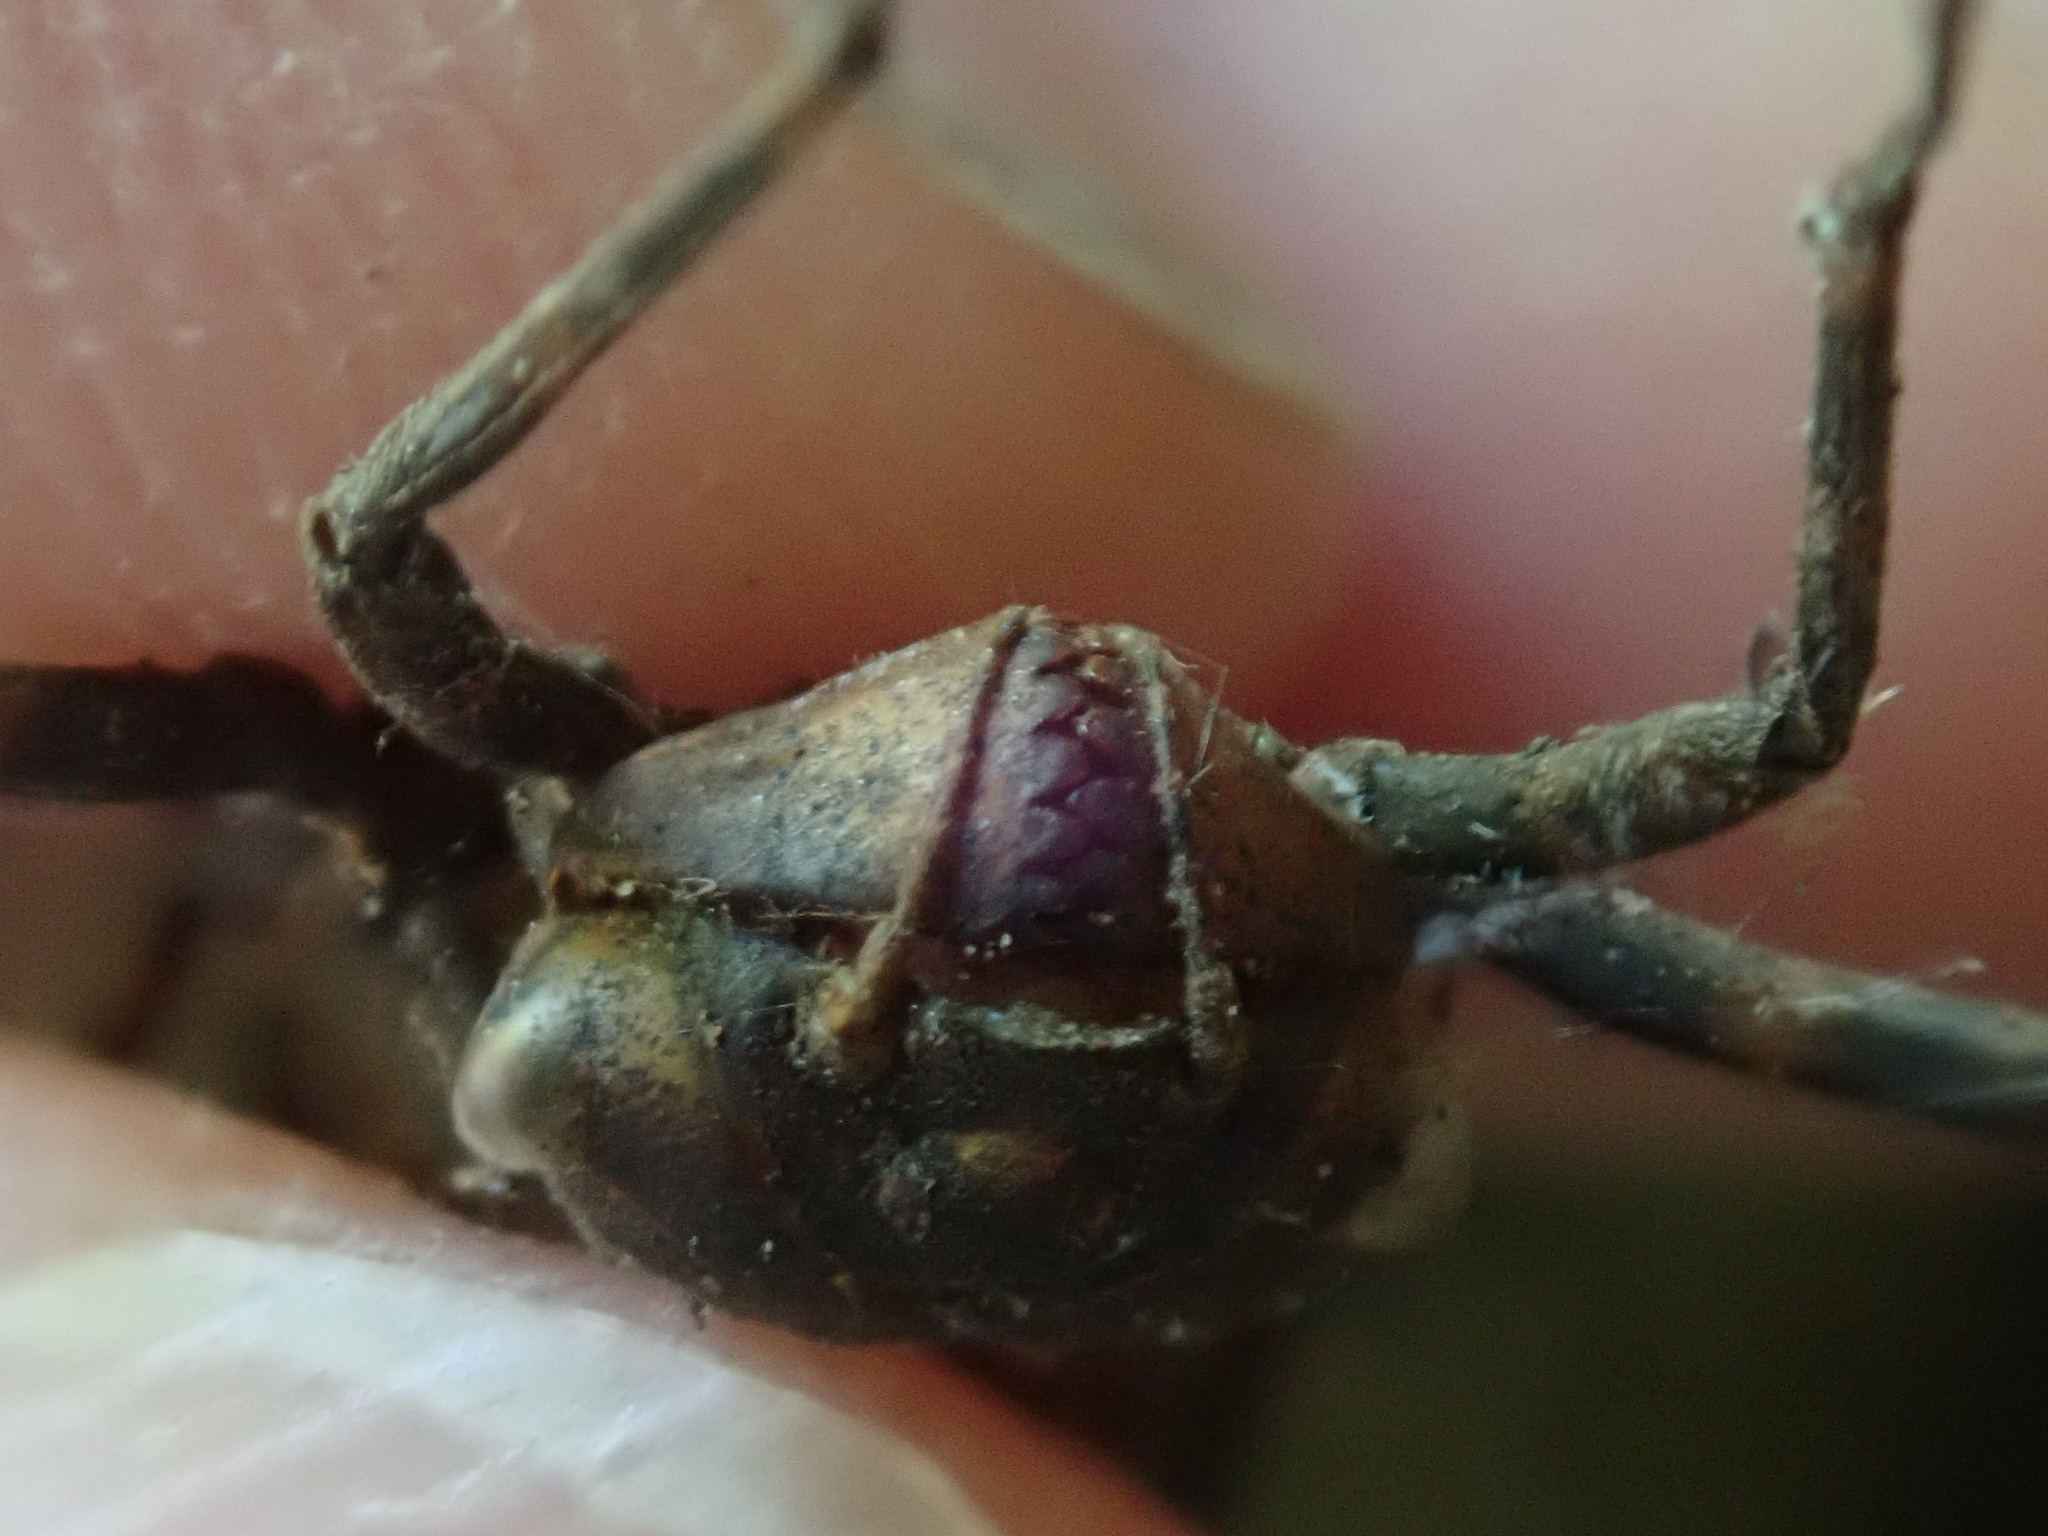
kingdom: Animalia
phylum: Arthropoda
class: Insecta
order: Odonata
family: Corduliidae
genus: Neurocordulia
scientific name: Neurocordulia yamaskanensis
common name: Stygian shadowdragon
